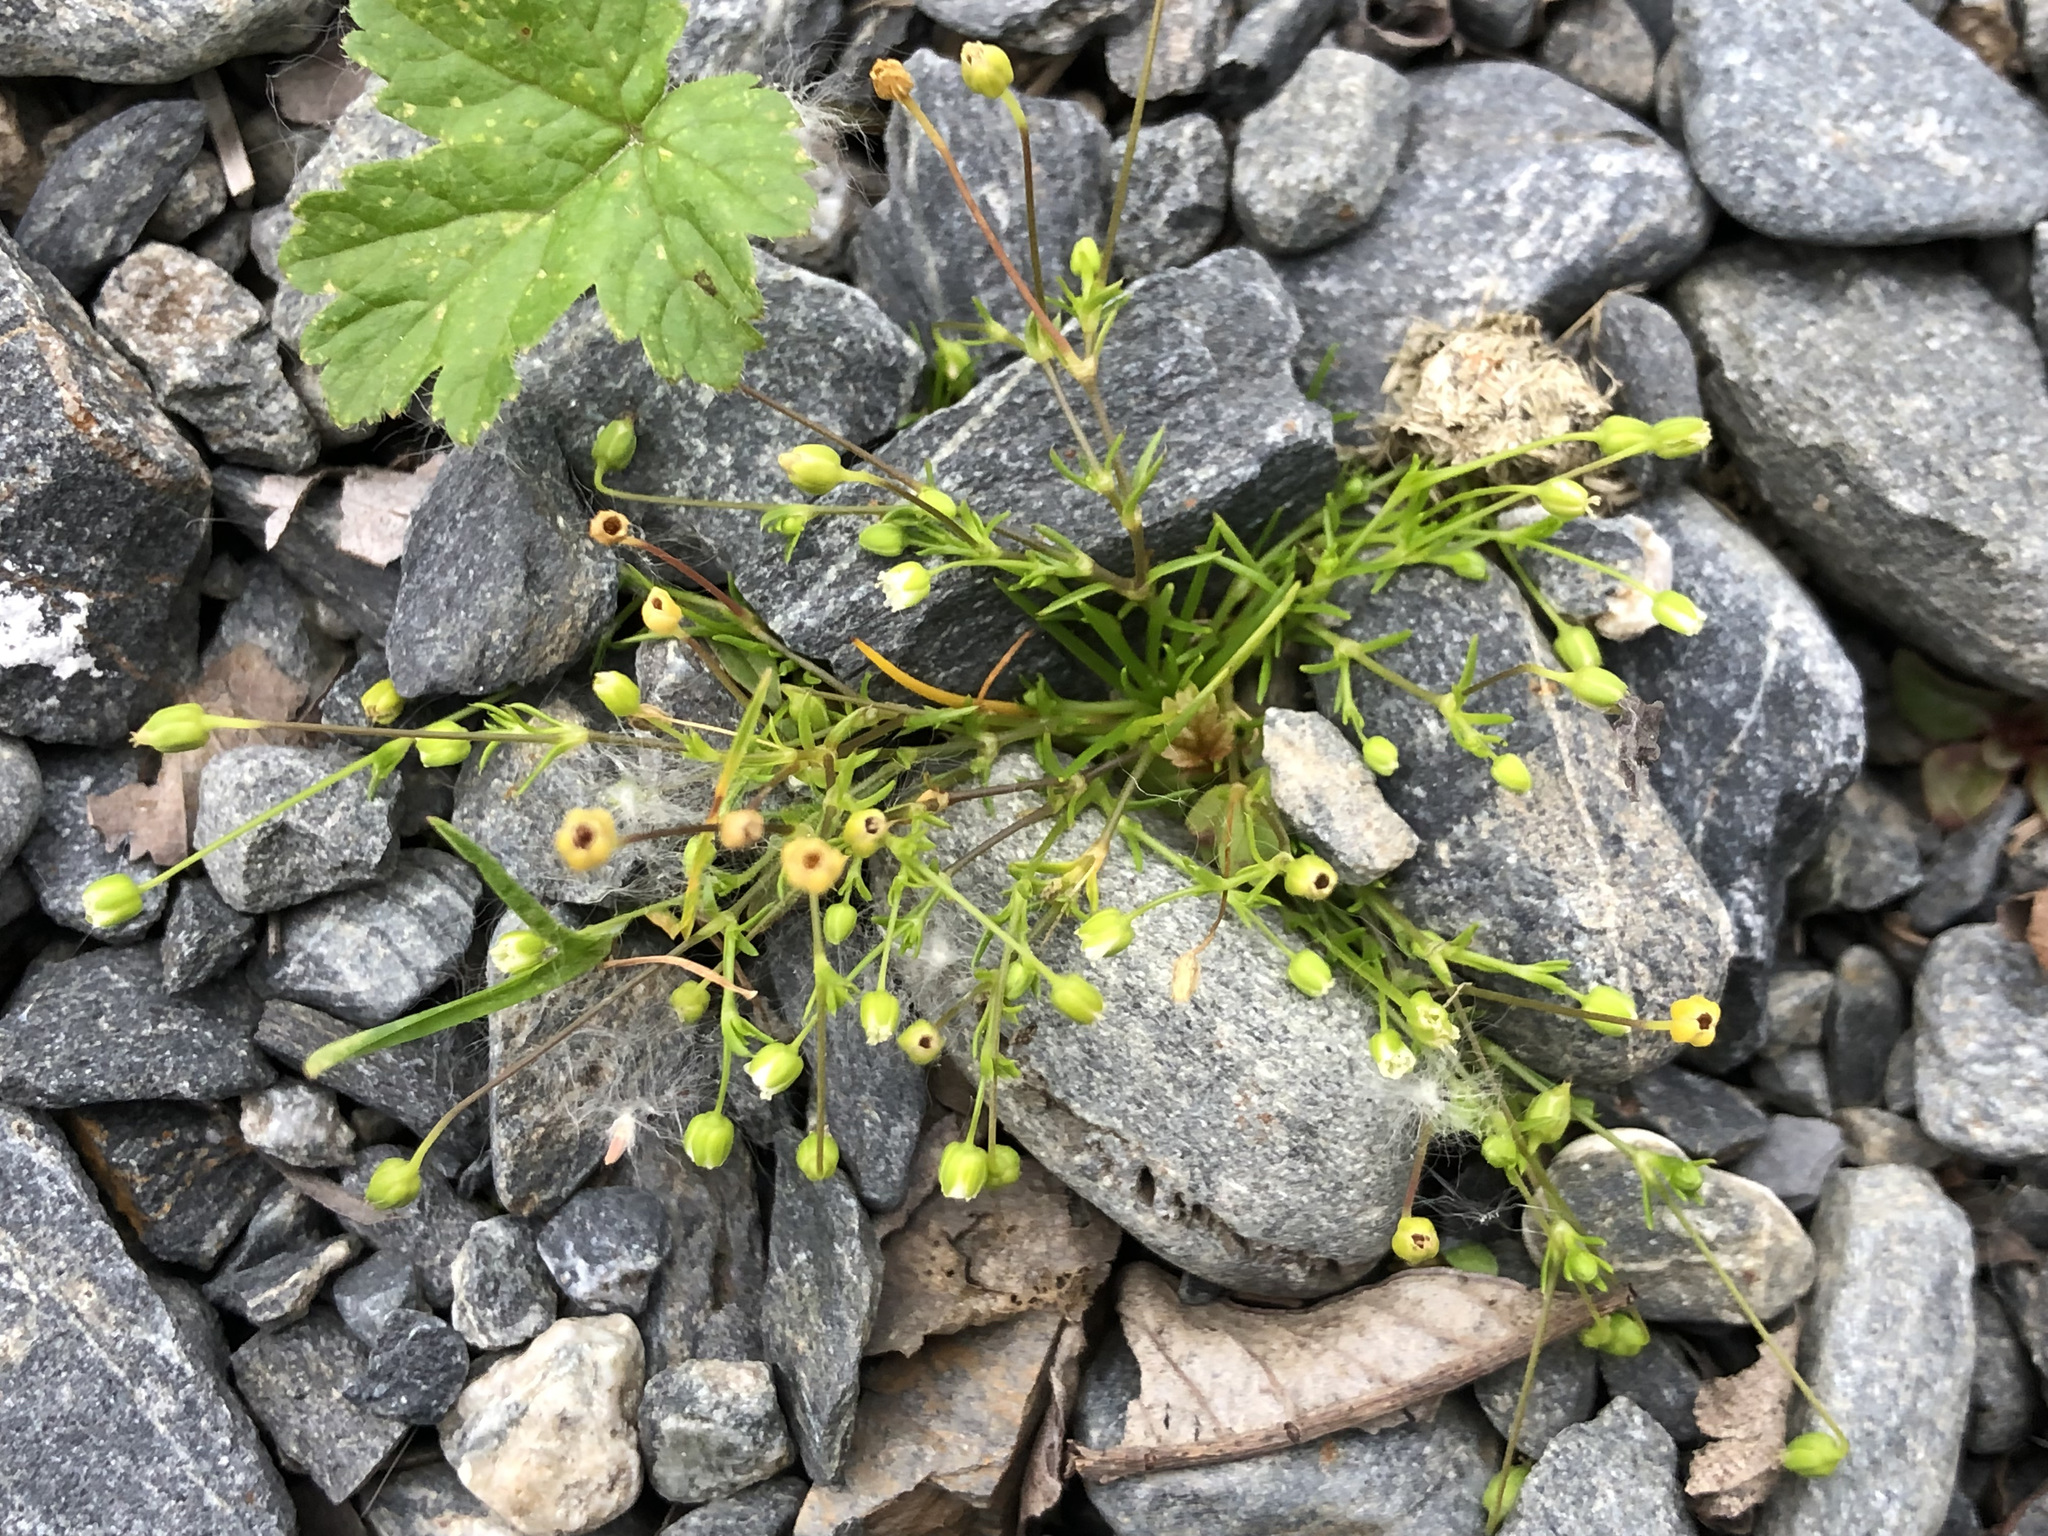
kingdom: Plantae
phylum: Tracheophyta
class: Magnoliopsida
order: Caryophyllales
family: Caryophyllaceae
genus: Sagina
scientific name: Sagina procumbens
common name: Procumbent pearlwort
